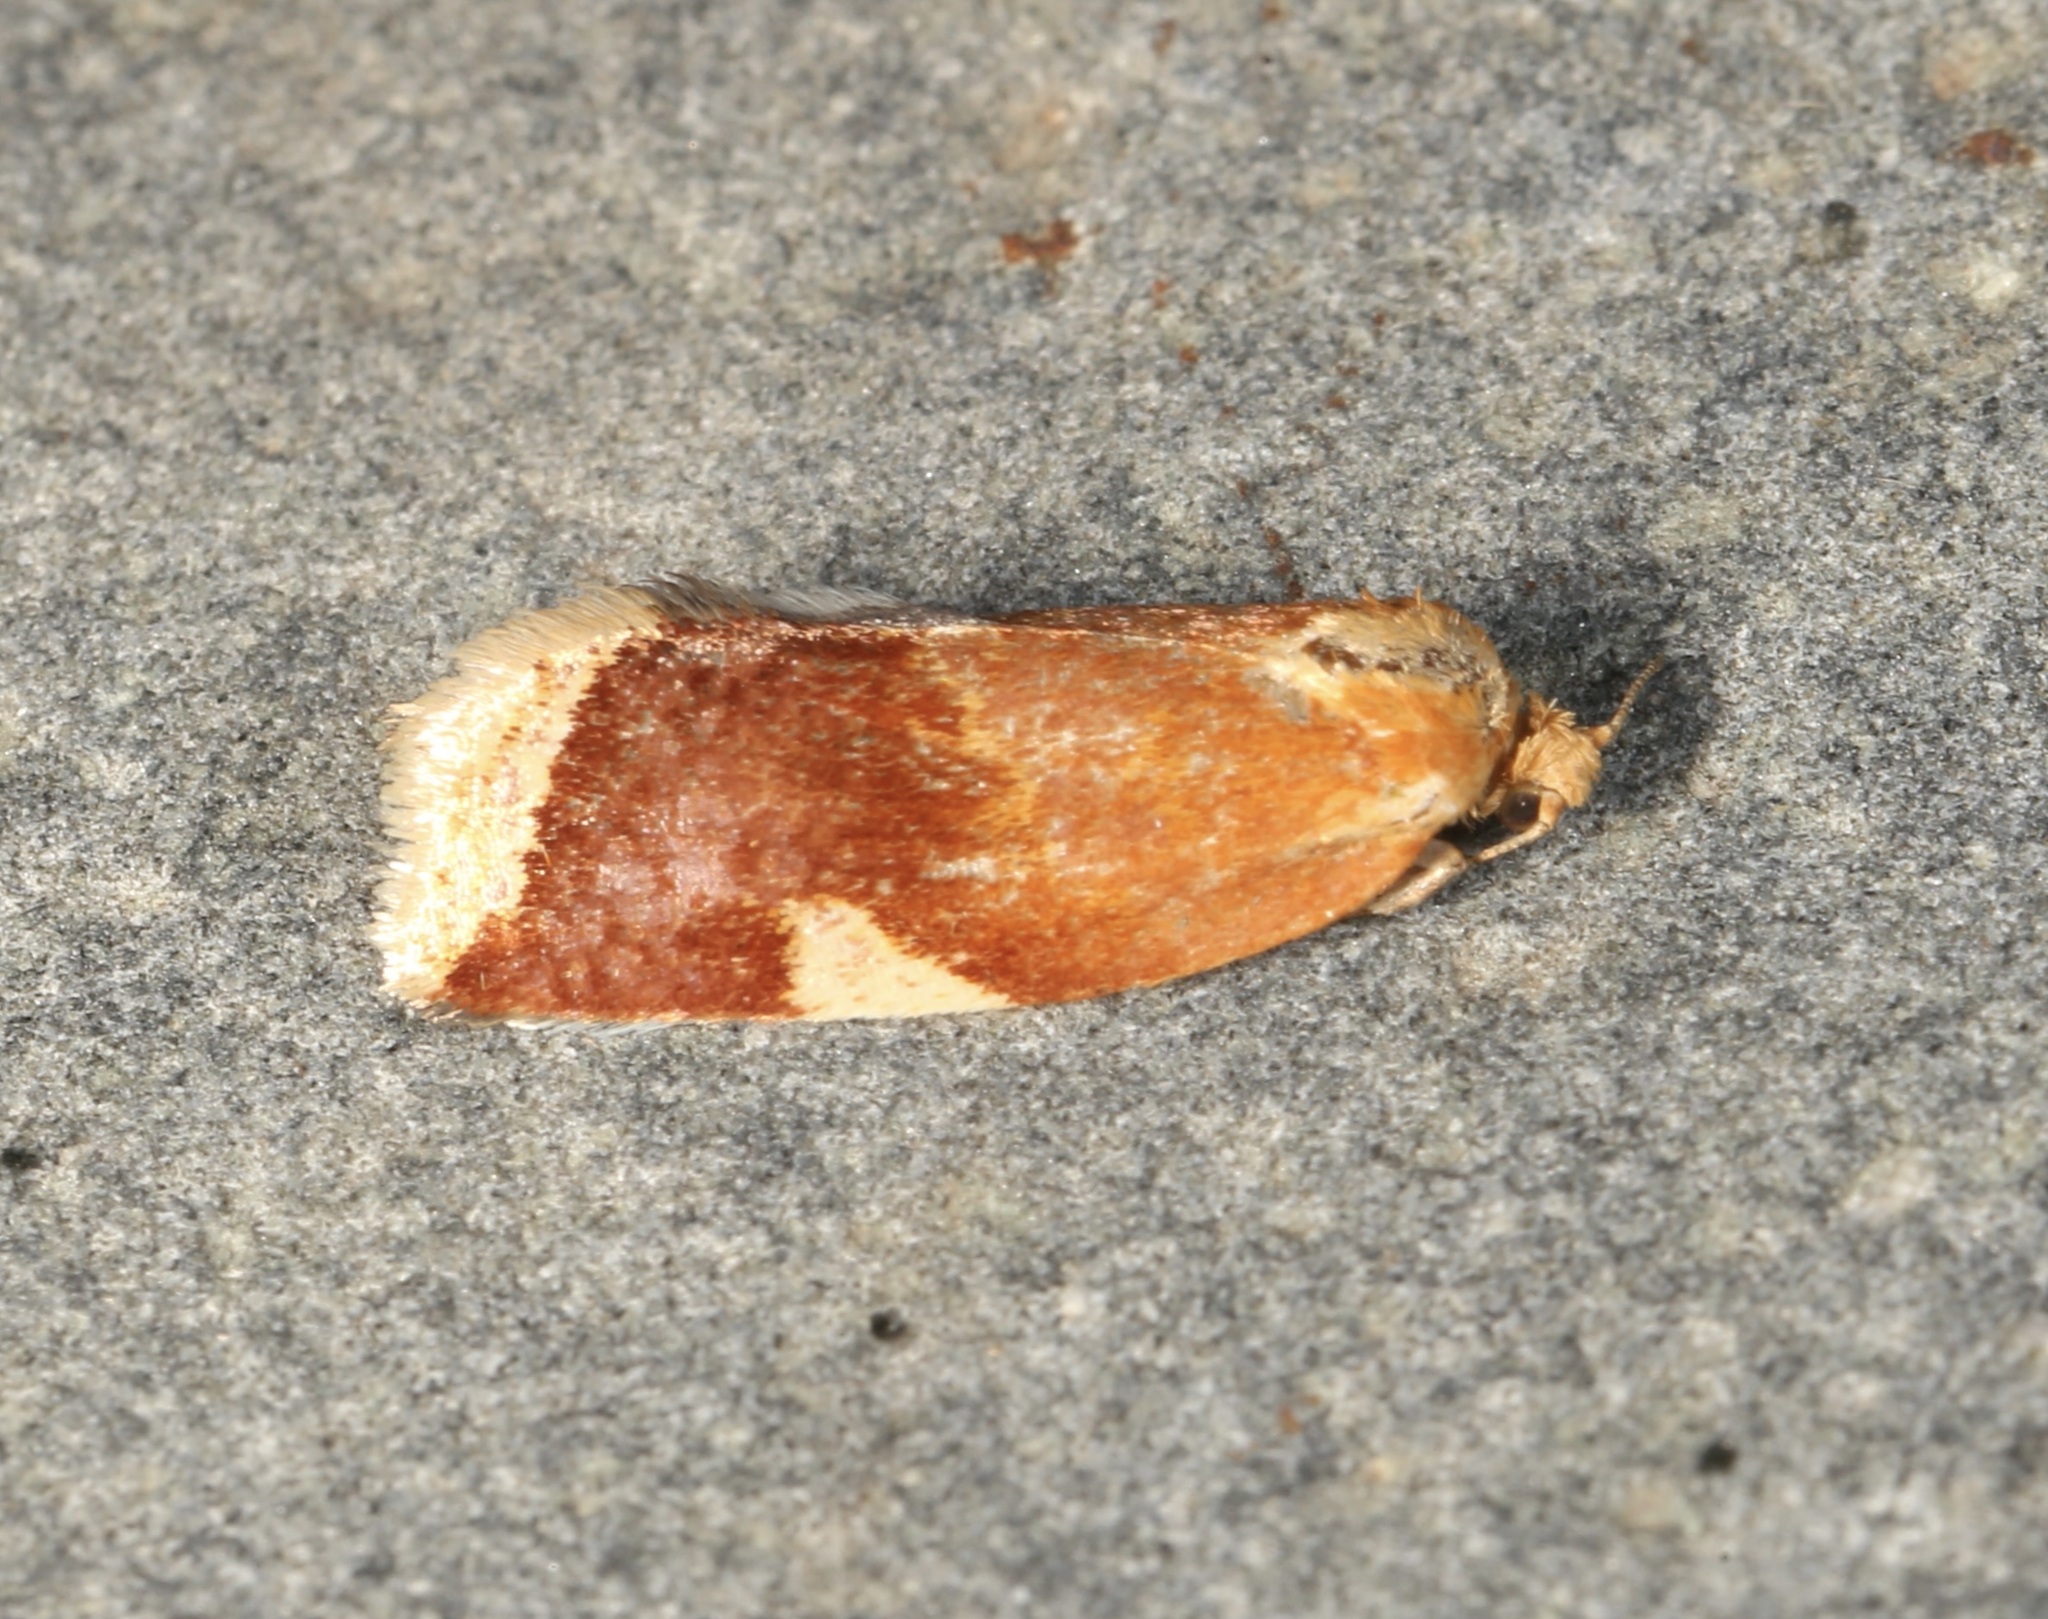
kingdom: Animalia
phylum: Arthropoda
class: Insecta
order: Lepidoptera
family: Tortricidae
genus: Clepsis
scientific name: Clepsis persicana
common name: White triangle tortrix
